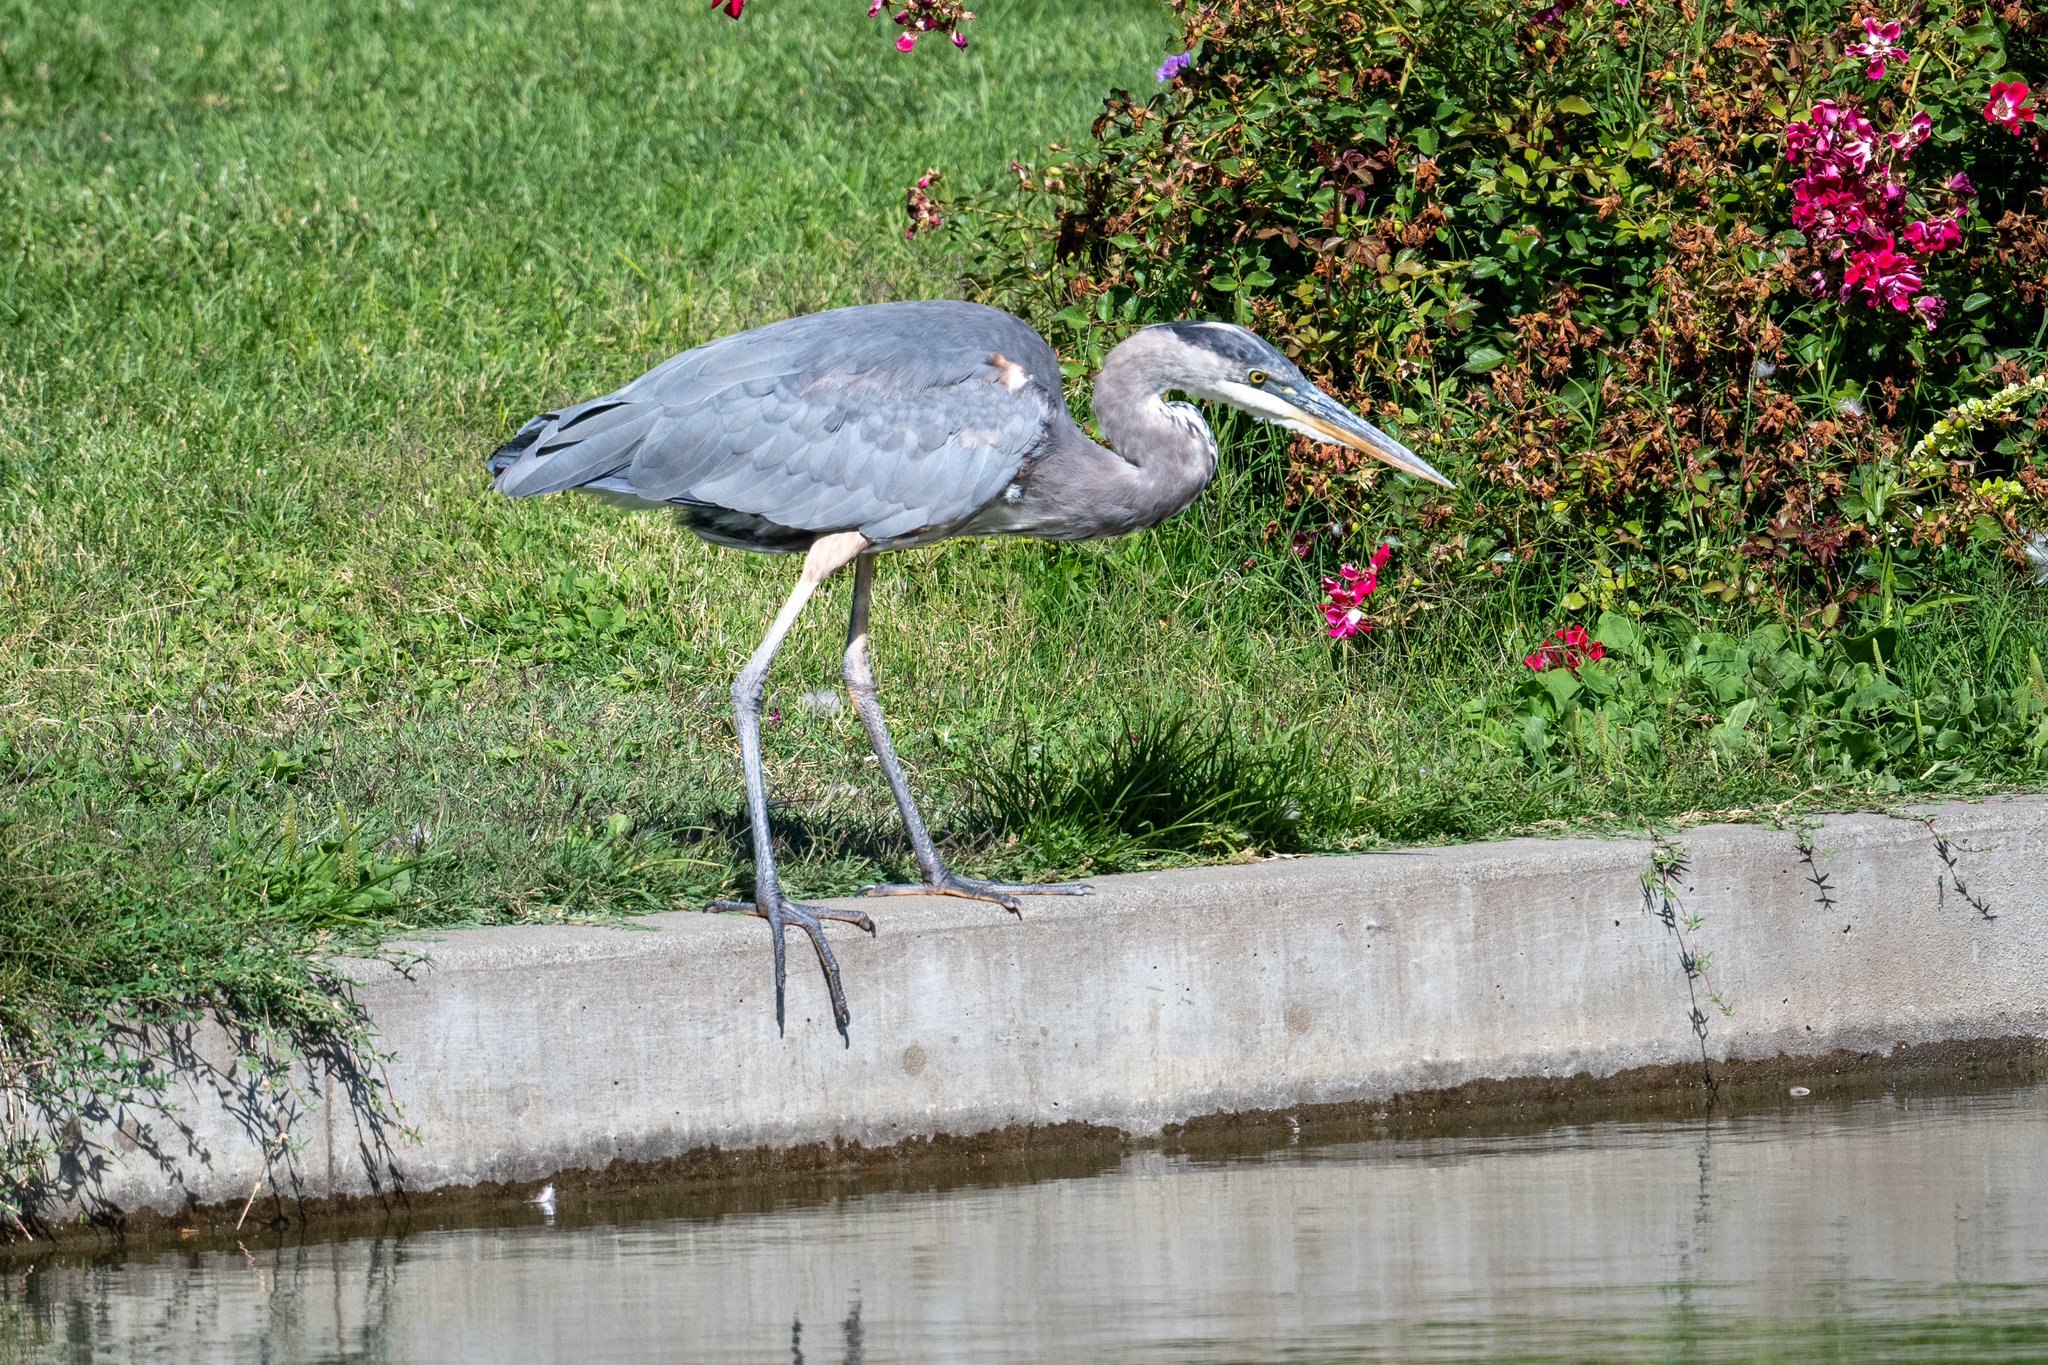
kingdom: Animalia
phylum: Chordata
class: Aves
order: Pelecaniformes
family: Ardeidae
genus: Ardea
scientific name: Ardea herodias
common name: Great blue heron
